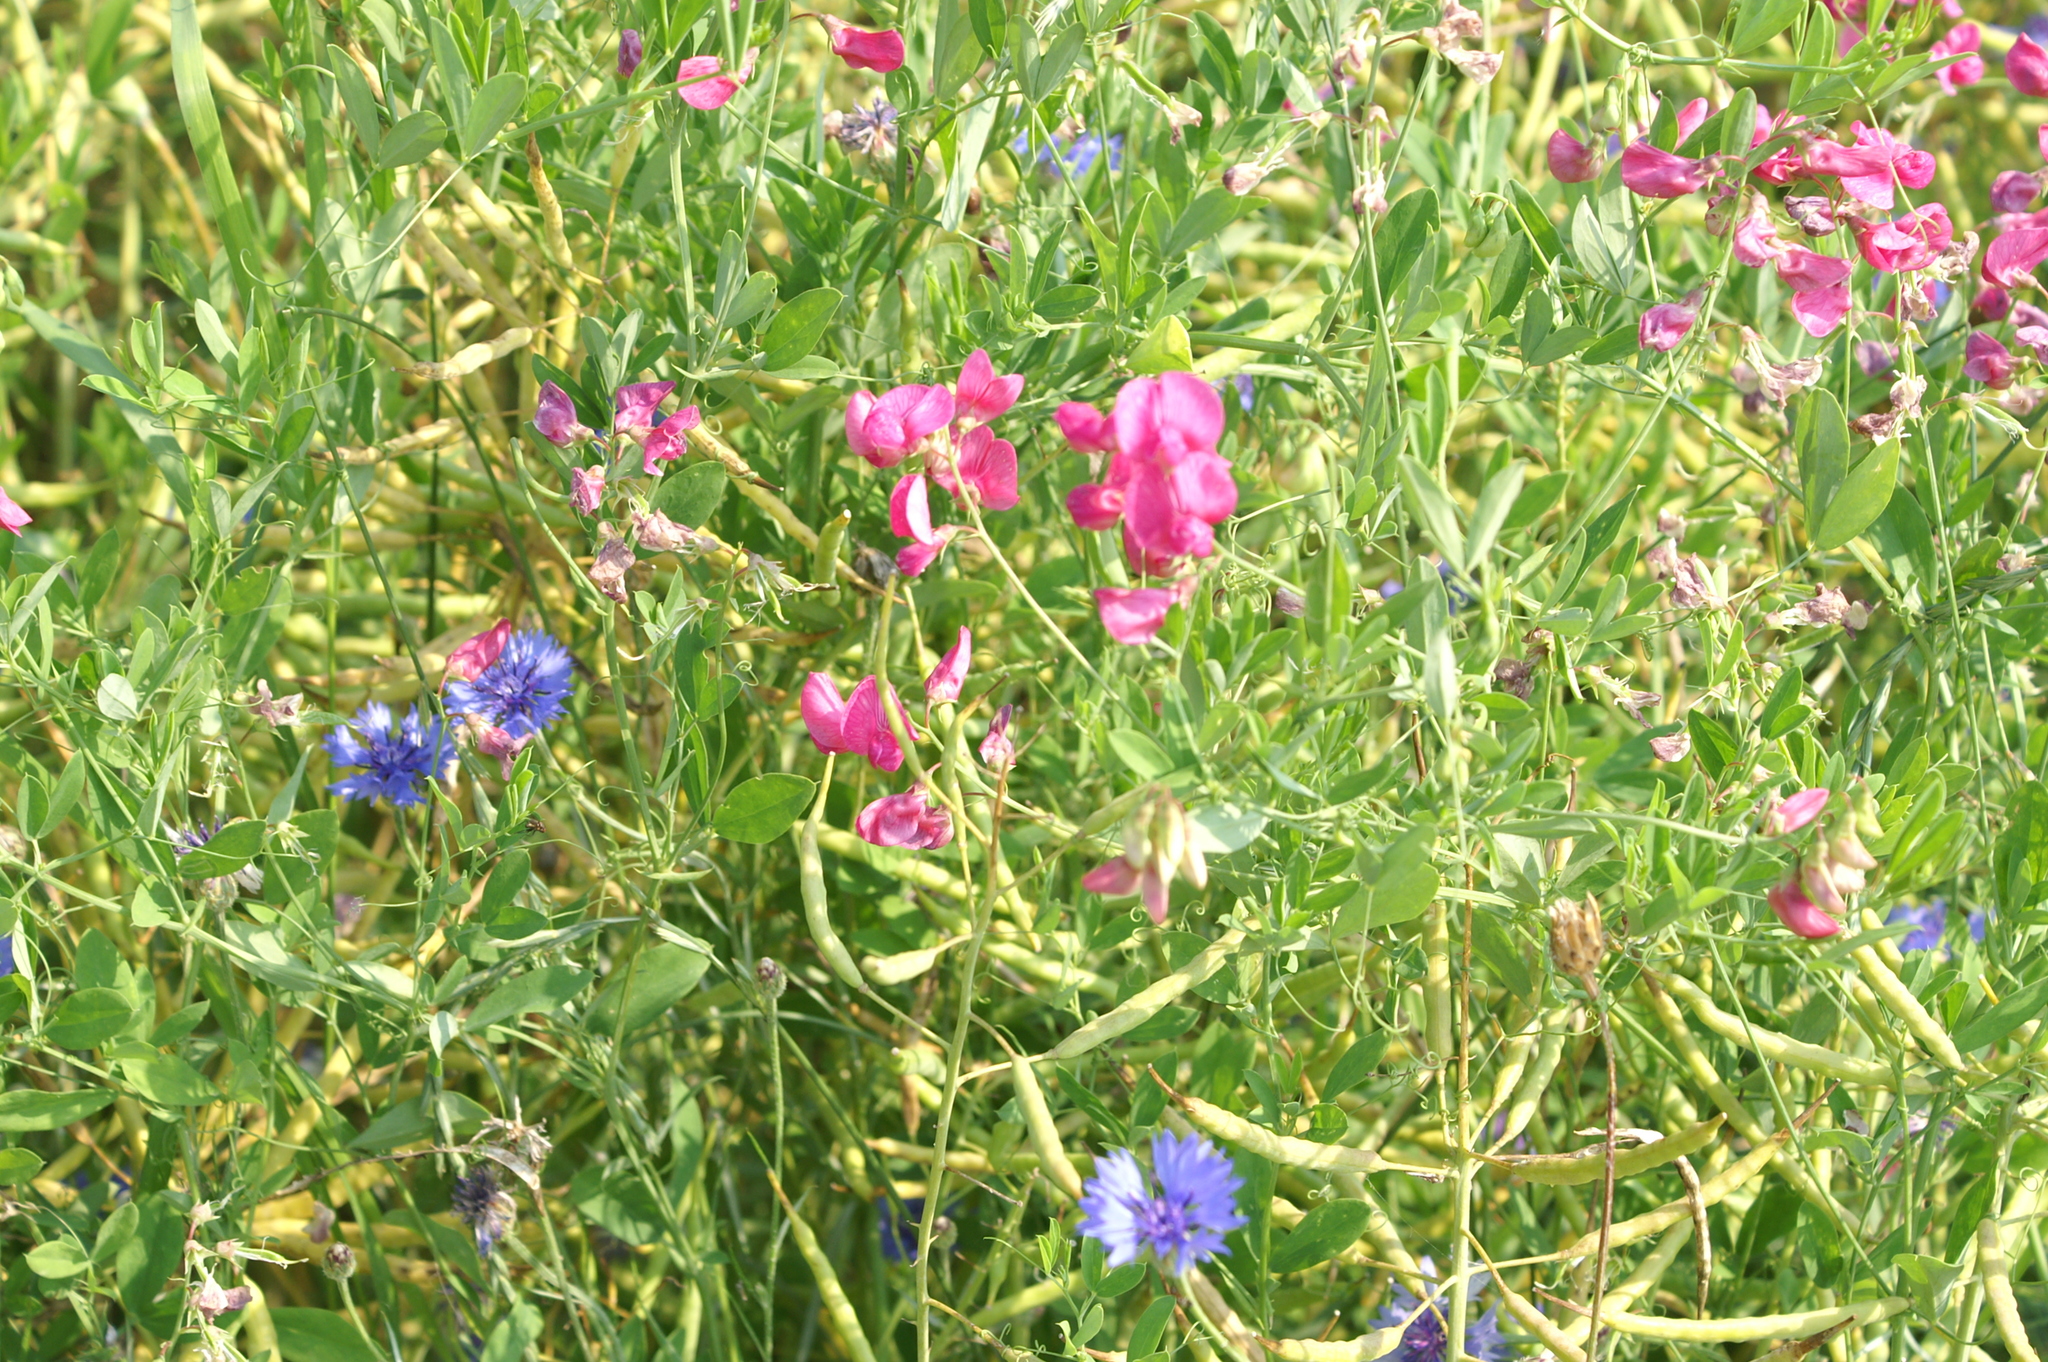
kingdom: Plantae
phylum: Tracheophyta
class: Magnoliopsida
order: Fabales
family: Fabaceae
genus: Lathyrus
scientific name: Lathyrus tuberosus
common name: Tuberous pea
